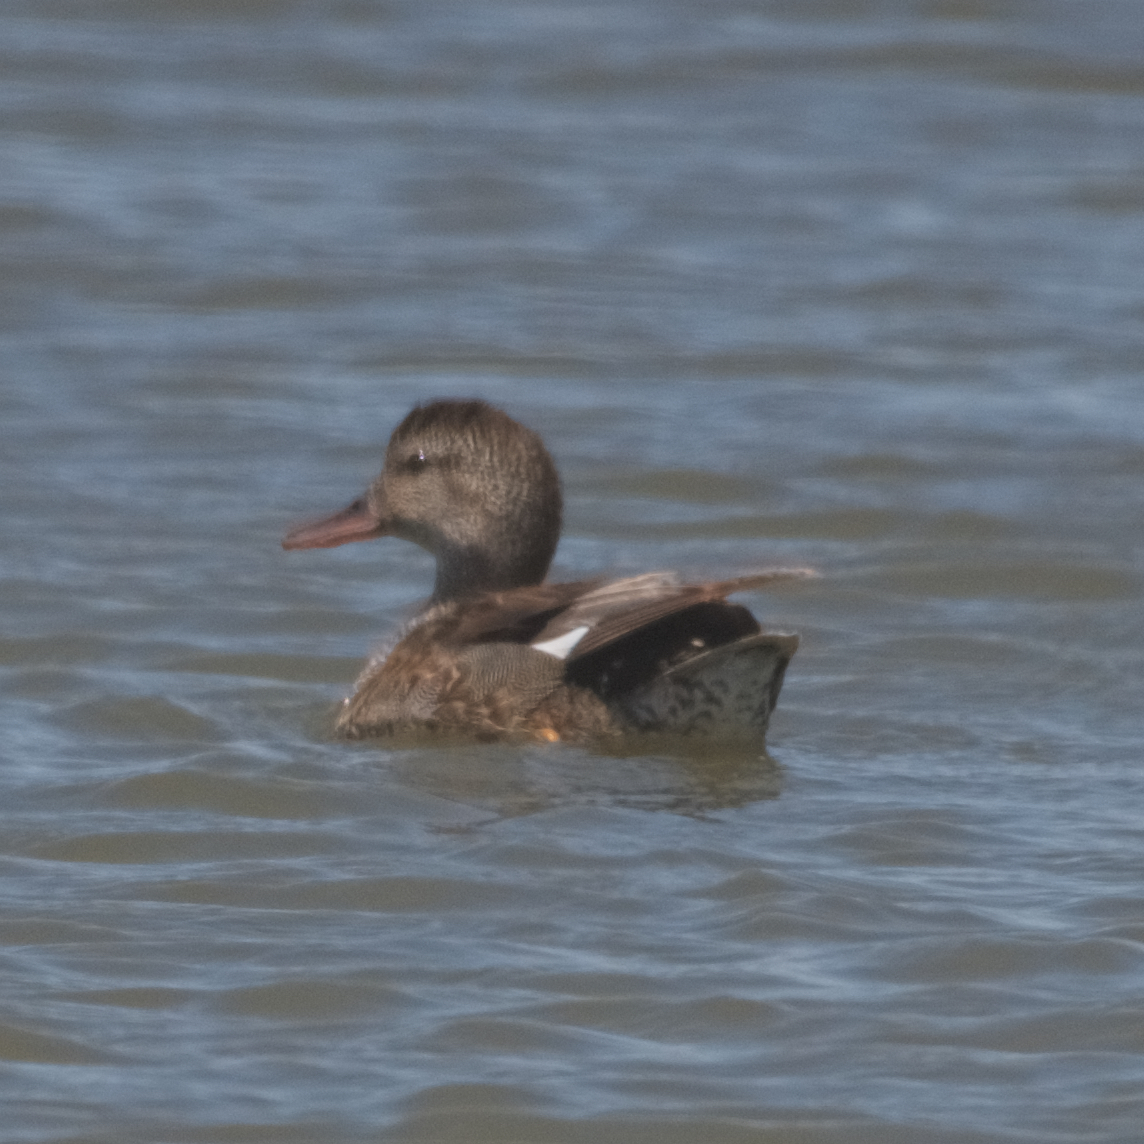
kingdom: Animalia
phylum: Chordata
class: Aves
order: Anseriformes
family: Anatidae
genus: Mareca
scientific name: Mareca strepera
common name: Gadwall
